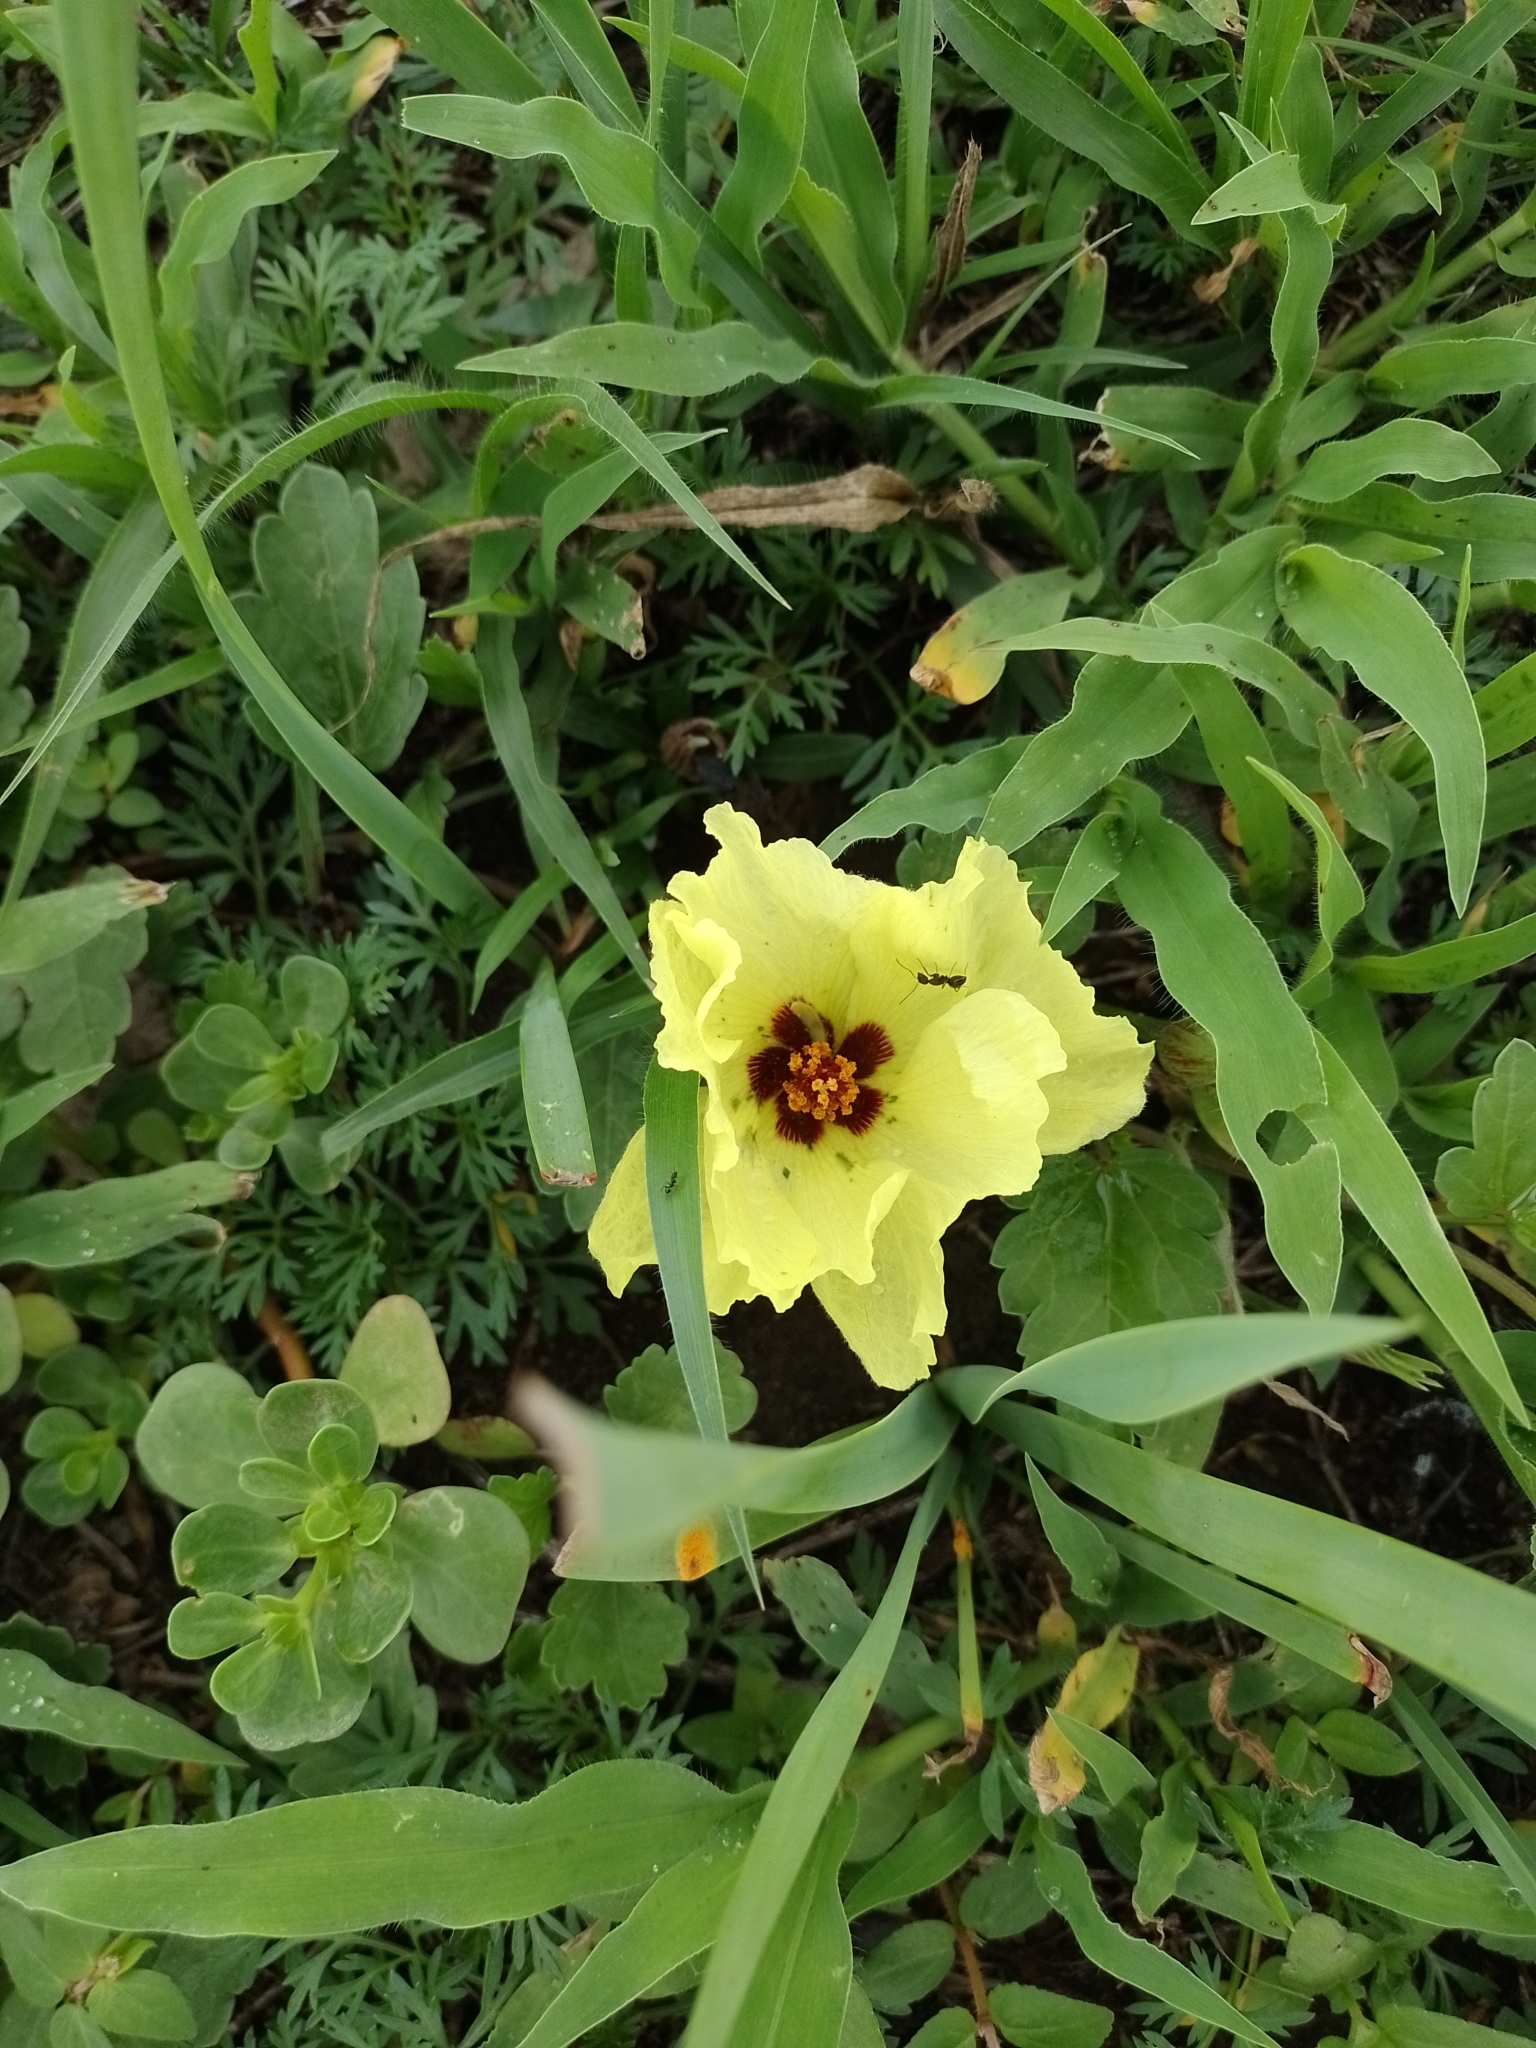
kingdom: Plantae
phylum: Tracheophyta
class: Magnoliopsida
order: Malvales
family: Malvaceae
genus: Cienfuegosia
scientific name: Cienfuegosia hispida
